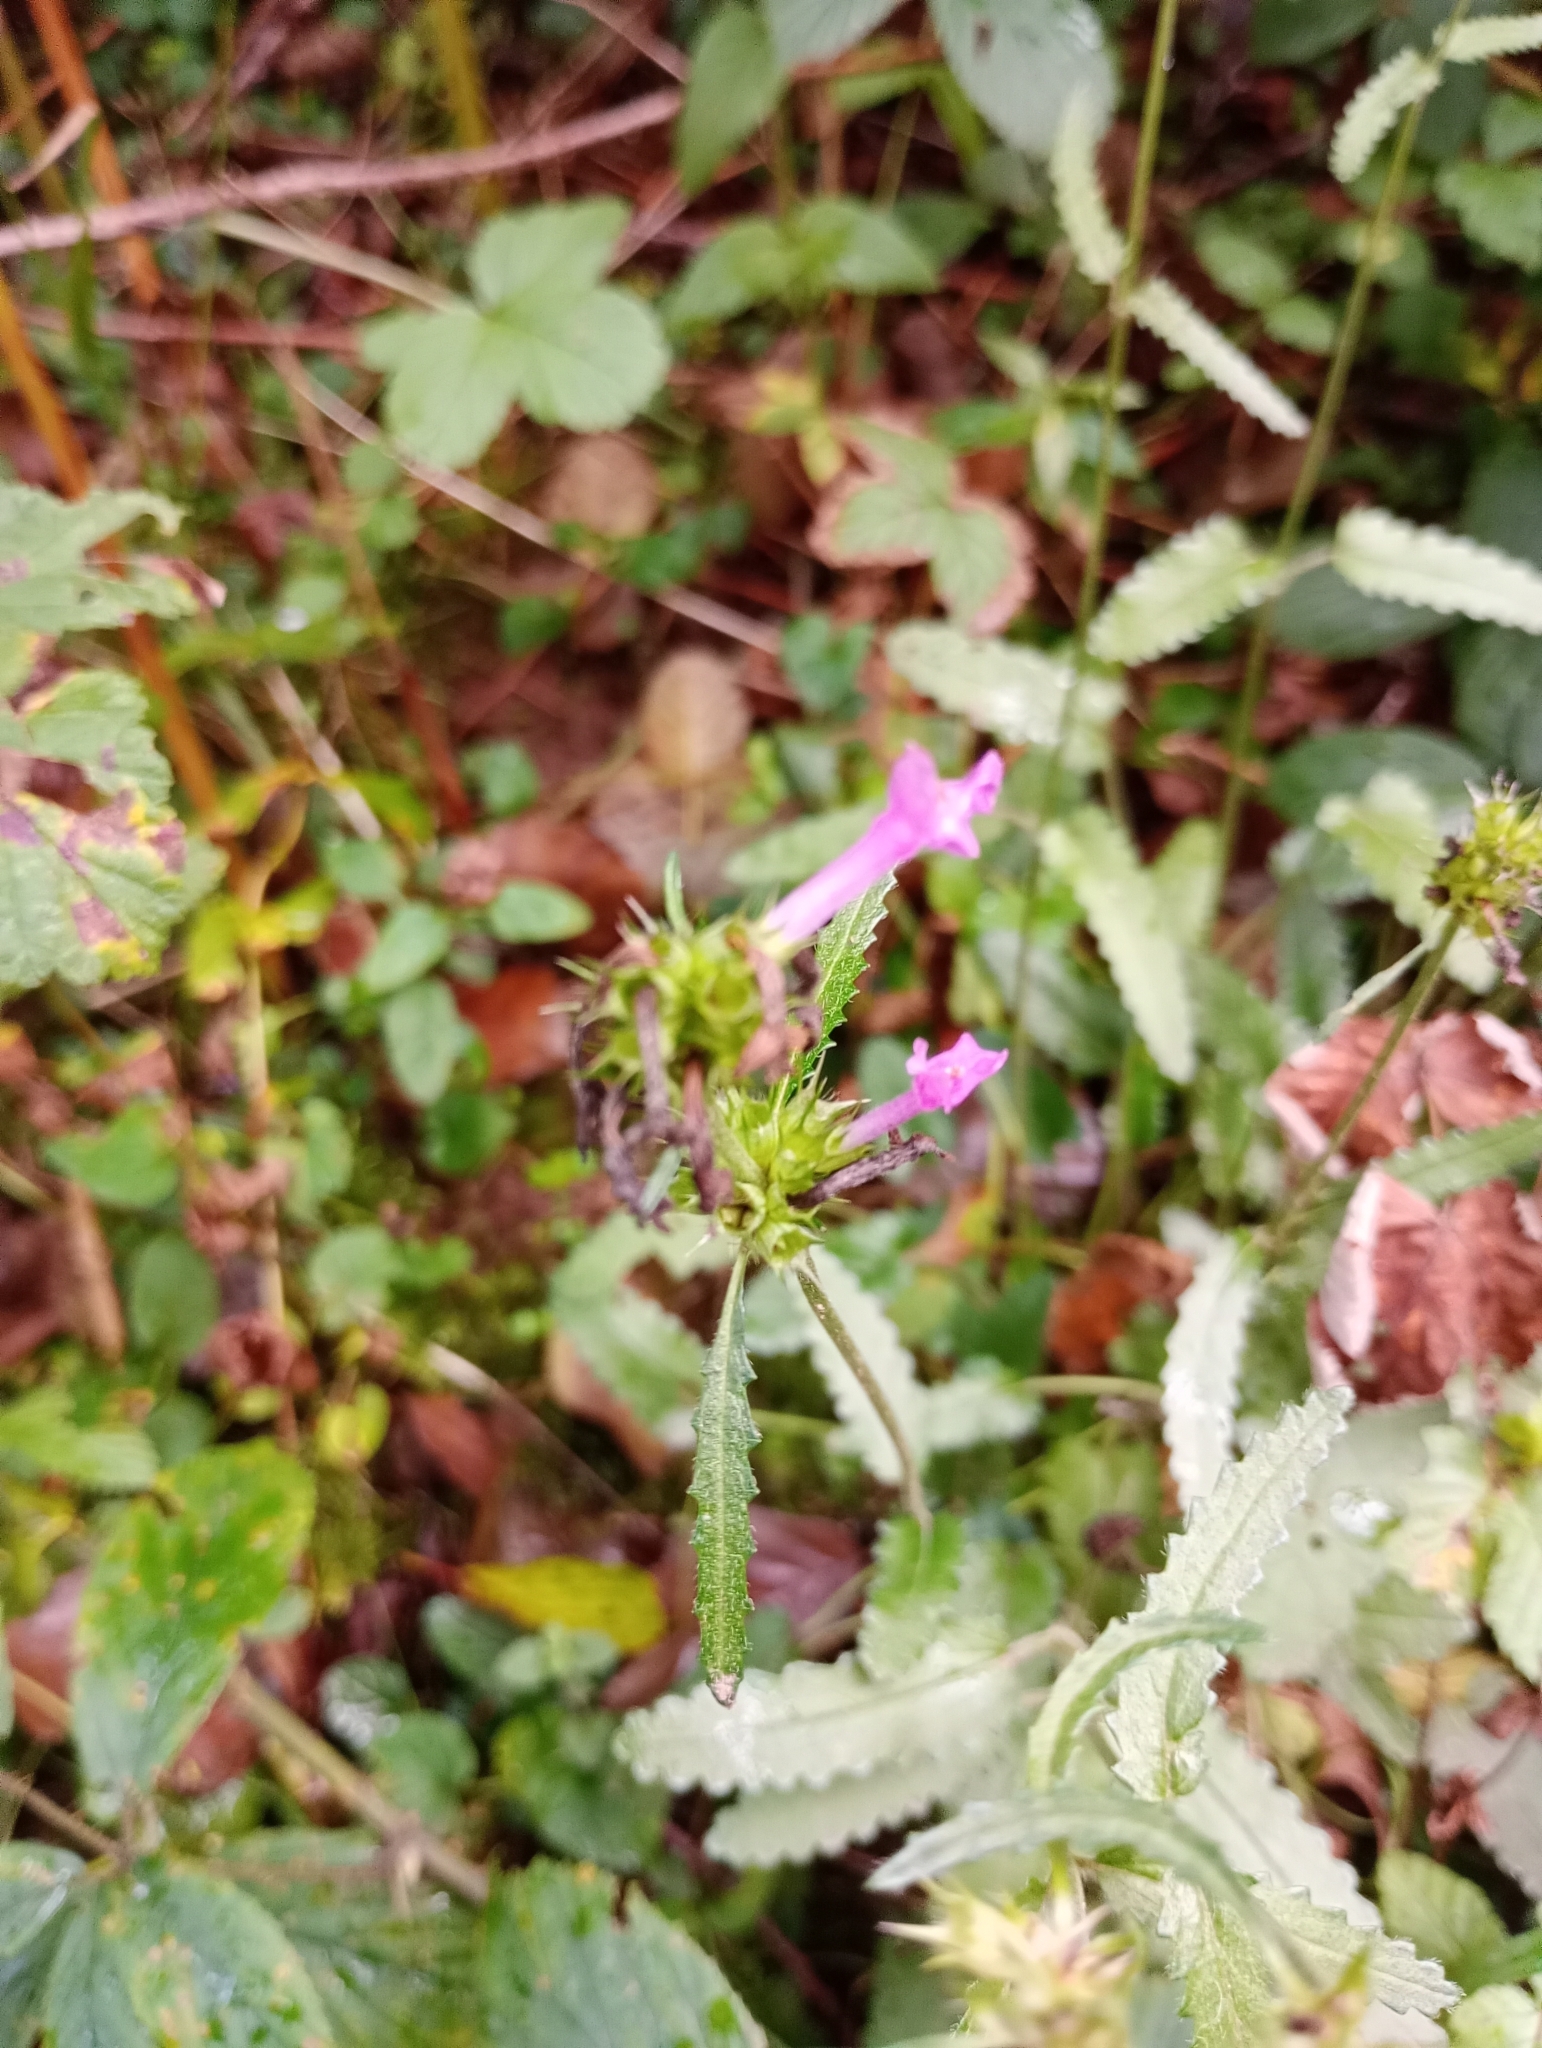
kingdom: Plantae
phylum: Tracheophyta
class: Magnoliopsida
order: Lamiales
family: Lamiaceae
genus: Betonica
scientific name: Betonica officinalis
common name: Bishop's-wort
